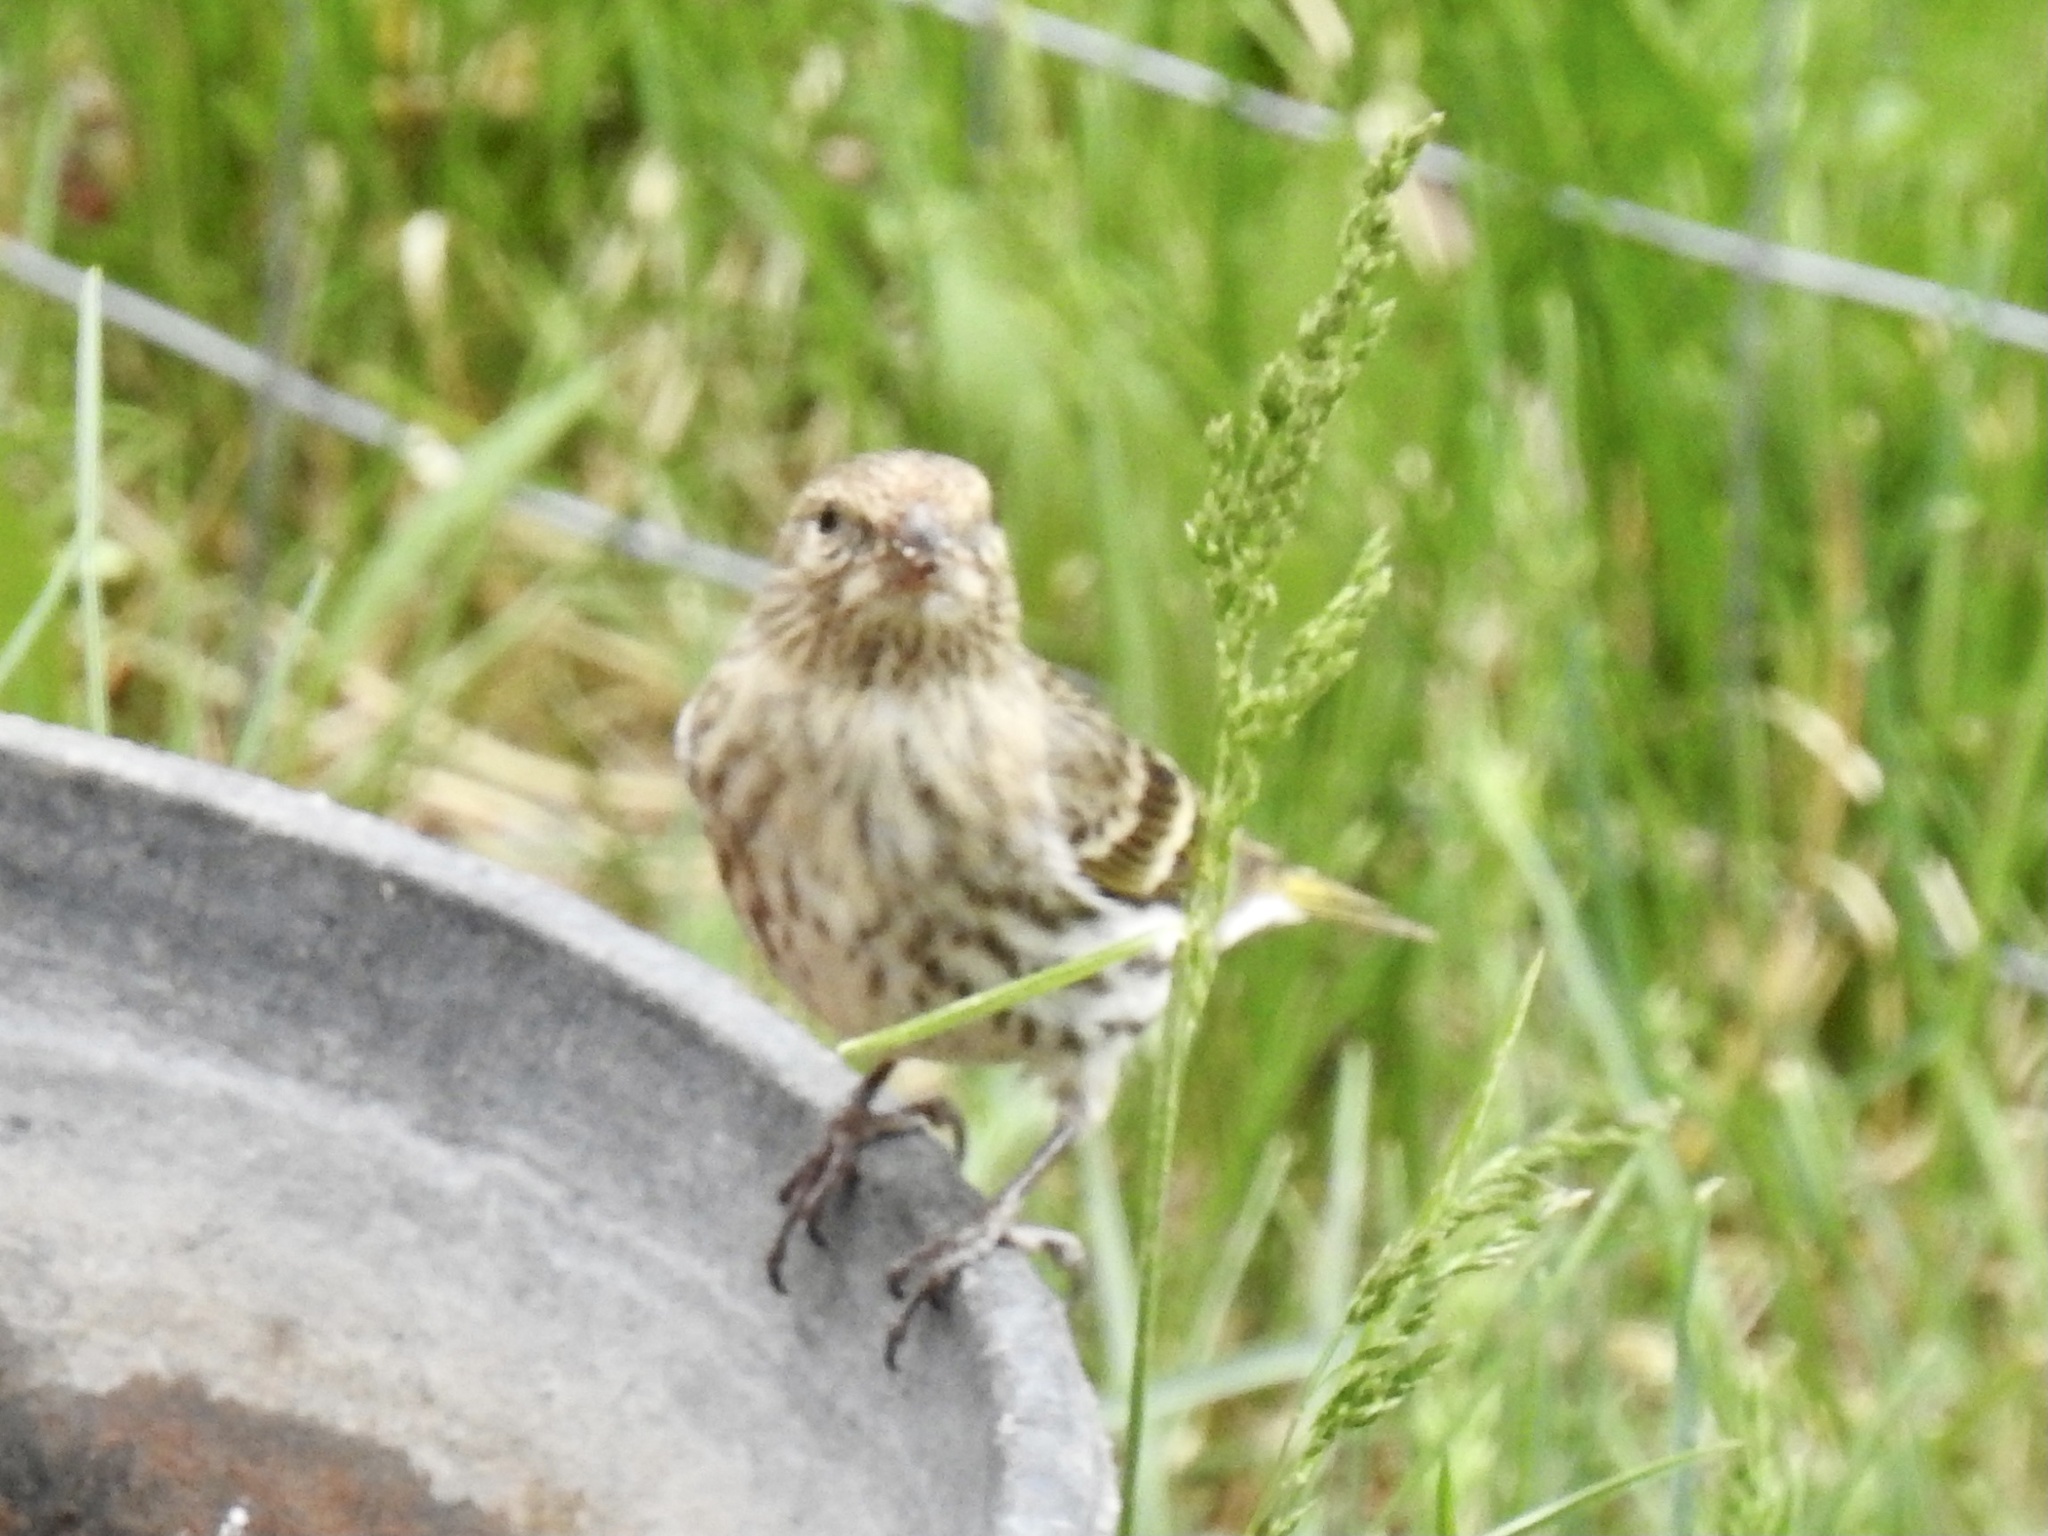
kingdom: Animalia
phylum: Chordata
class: Aves
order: Passeriformes
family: Fringillidae
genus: Spinus
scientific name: Spinus pinus
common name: Pine siskin
